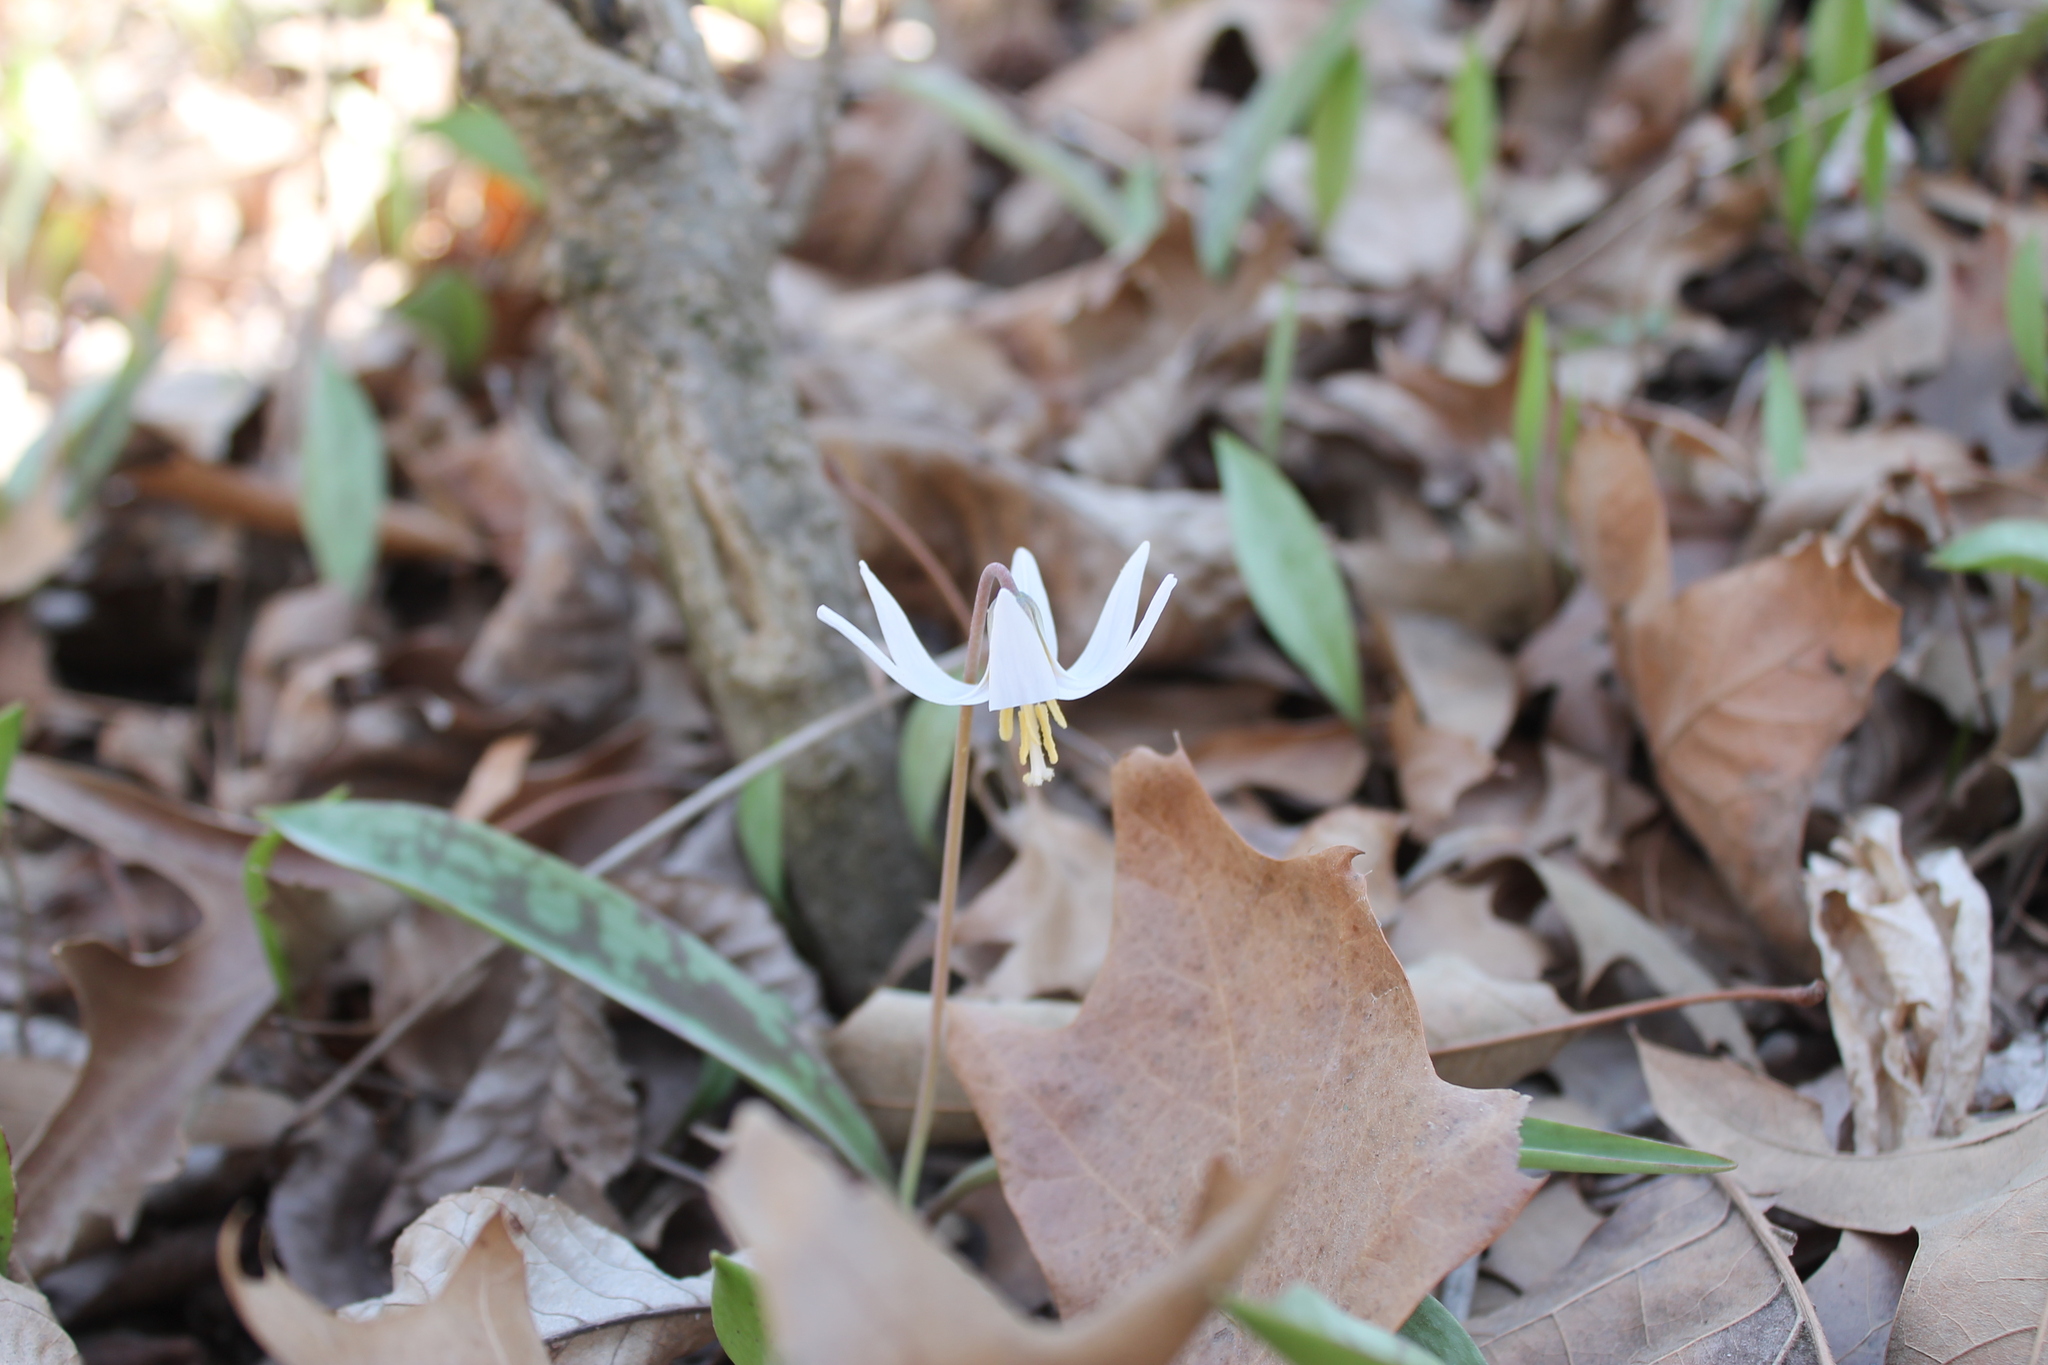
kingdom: Plantae
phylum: Tracheophyta
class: Liliopsida
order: Liliales
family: Liliaceae
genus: Erythronium
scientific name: Erythronium albidum
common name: White trout-lily
